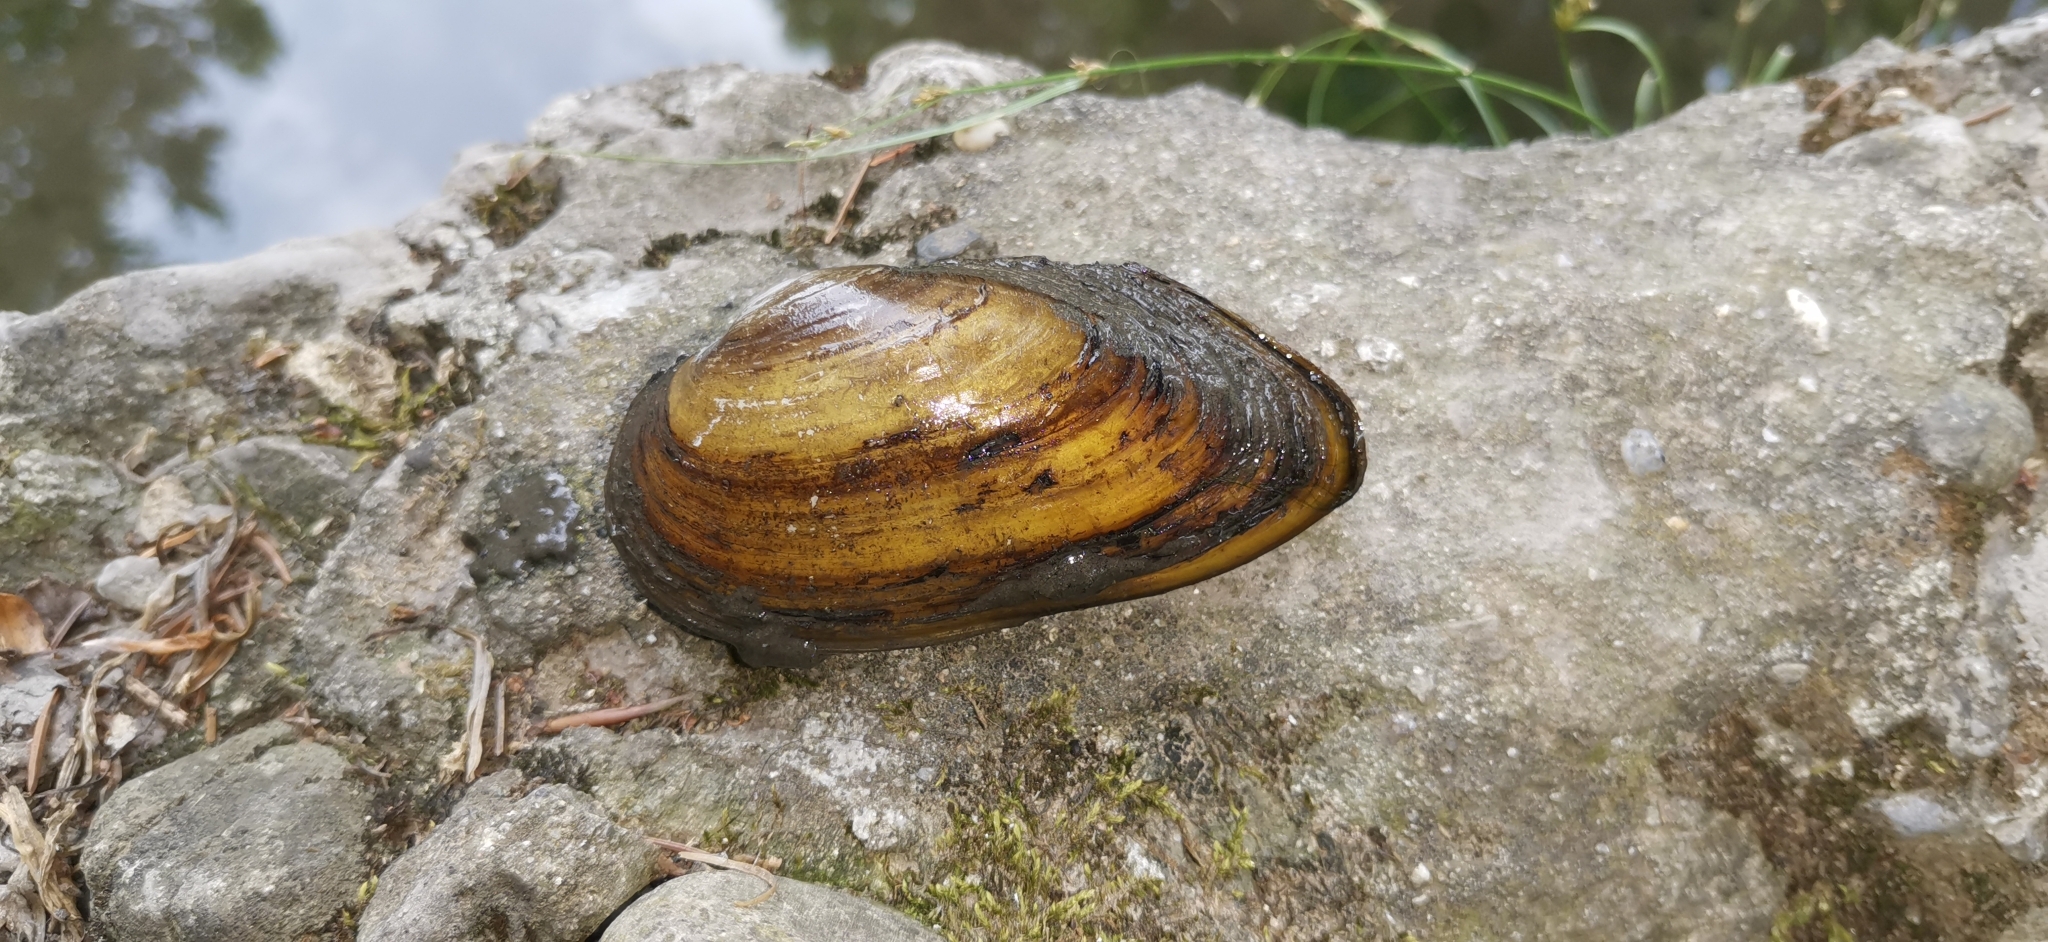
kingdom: Animalia
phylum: Mollusca
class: Bivalvia
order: Unionida
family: Unionidae
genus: Unio
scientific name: Unio elongatulus
